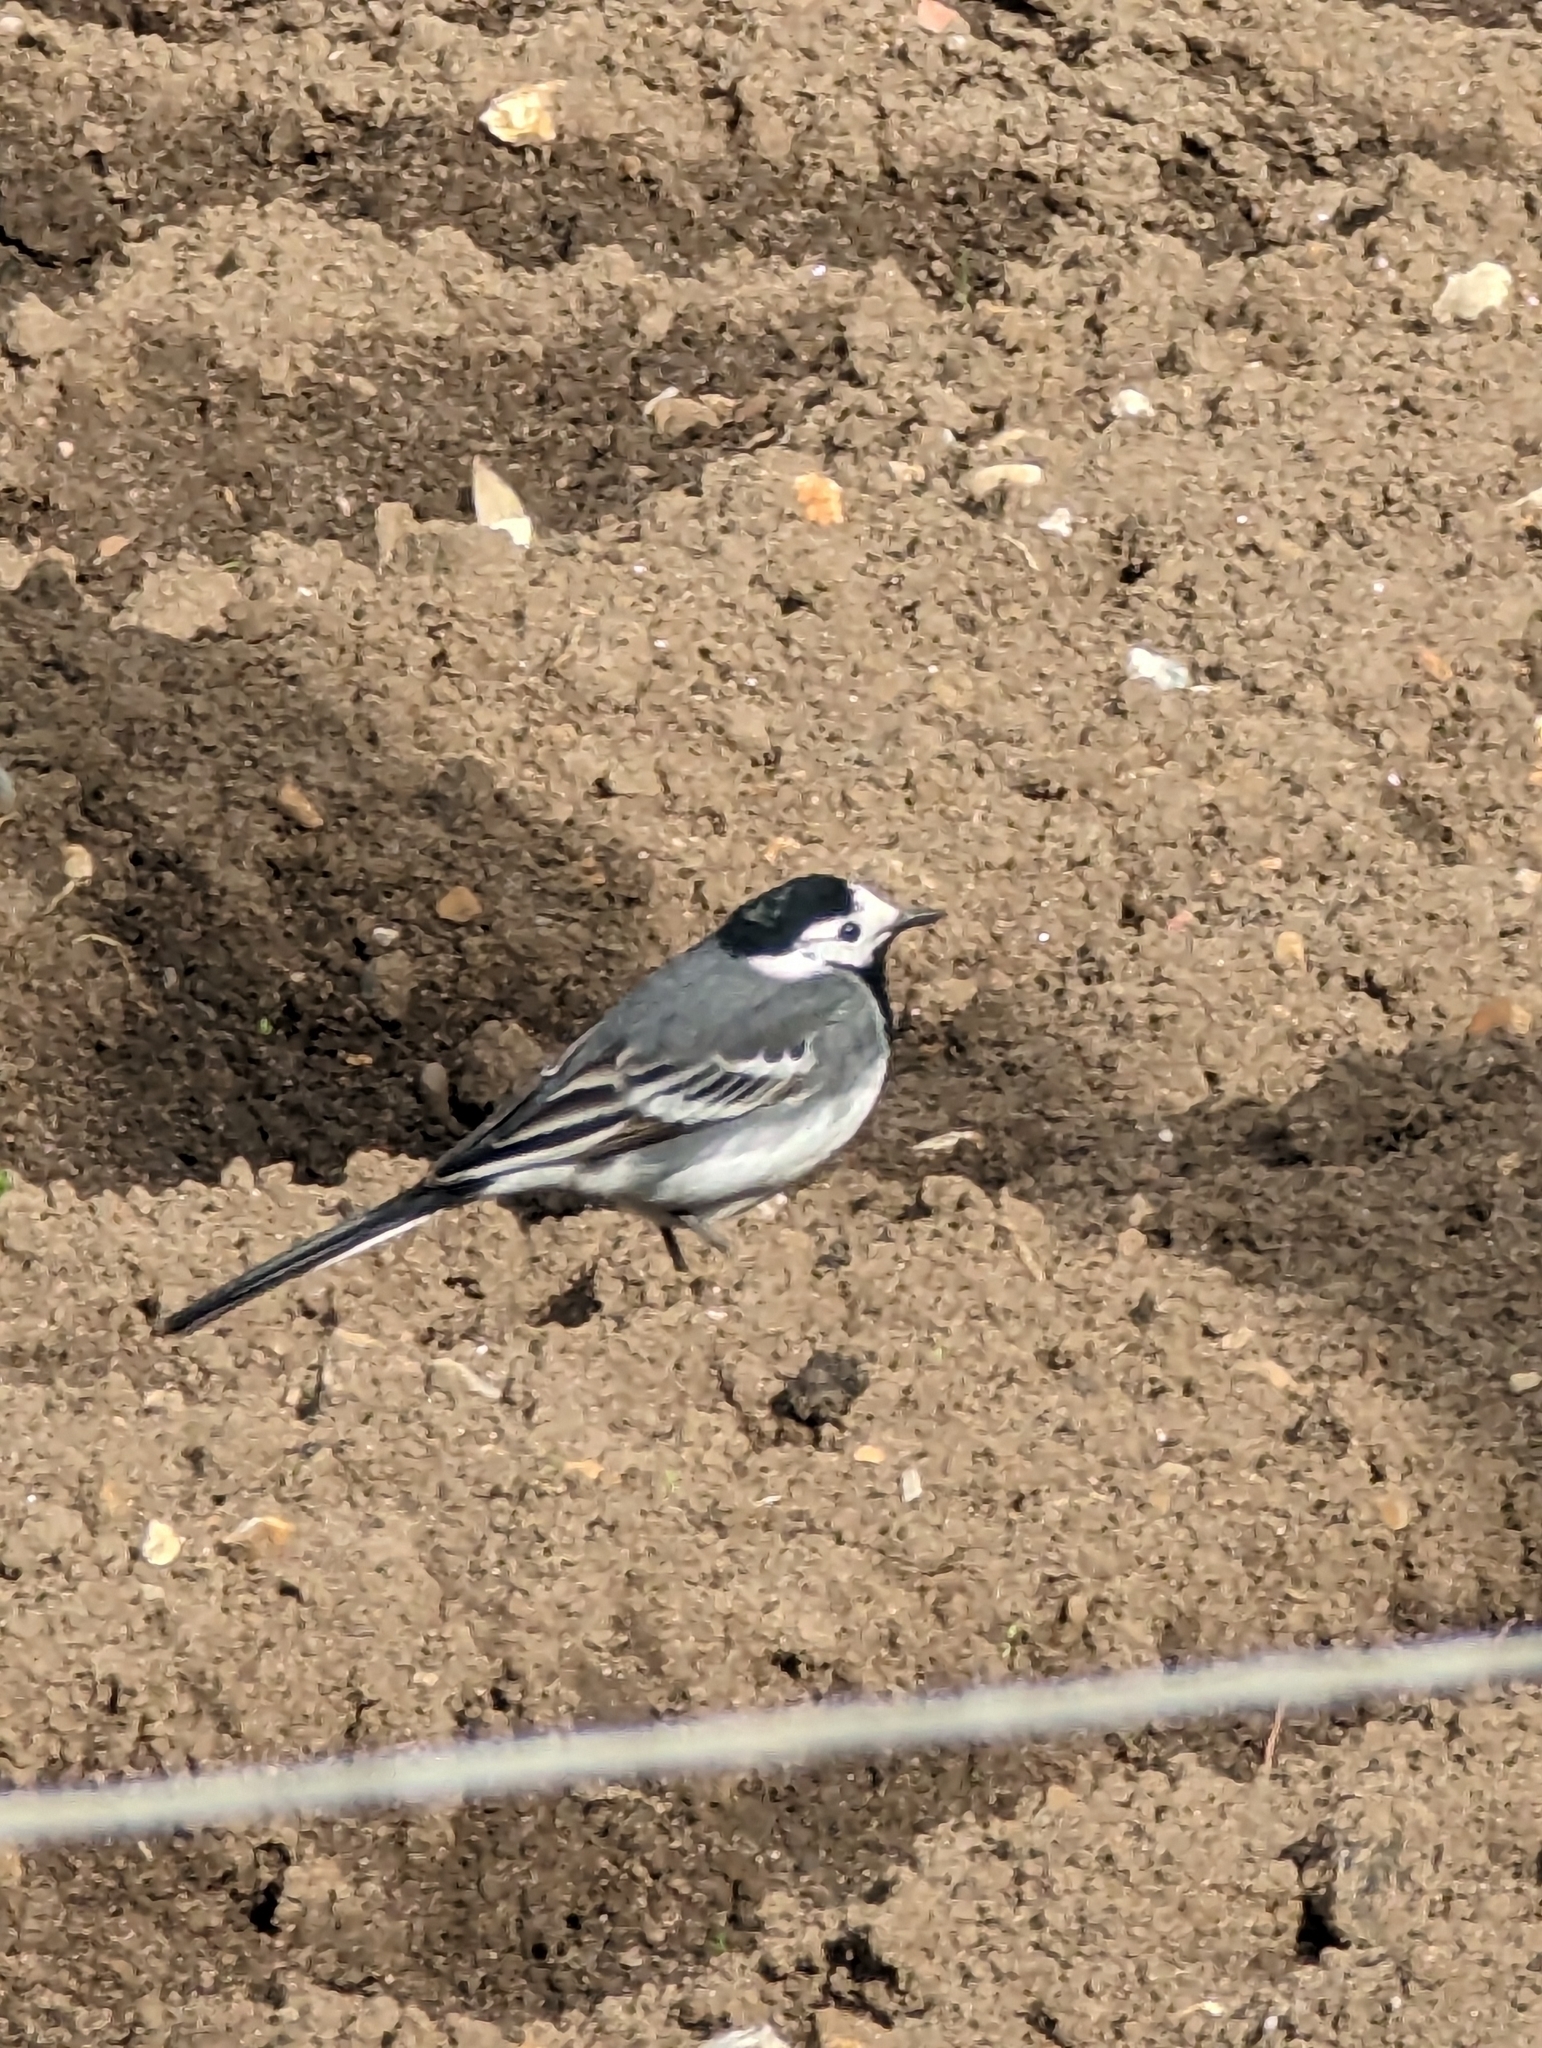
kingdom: Animalia
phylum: Chordata
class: Aves
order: Passeriformes
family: Motacillidae
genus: Motacilla
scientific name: Motacilla alba
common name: White wagtail
